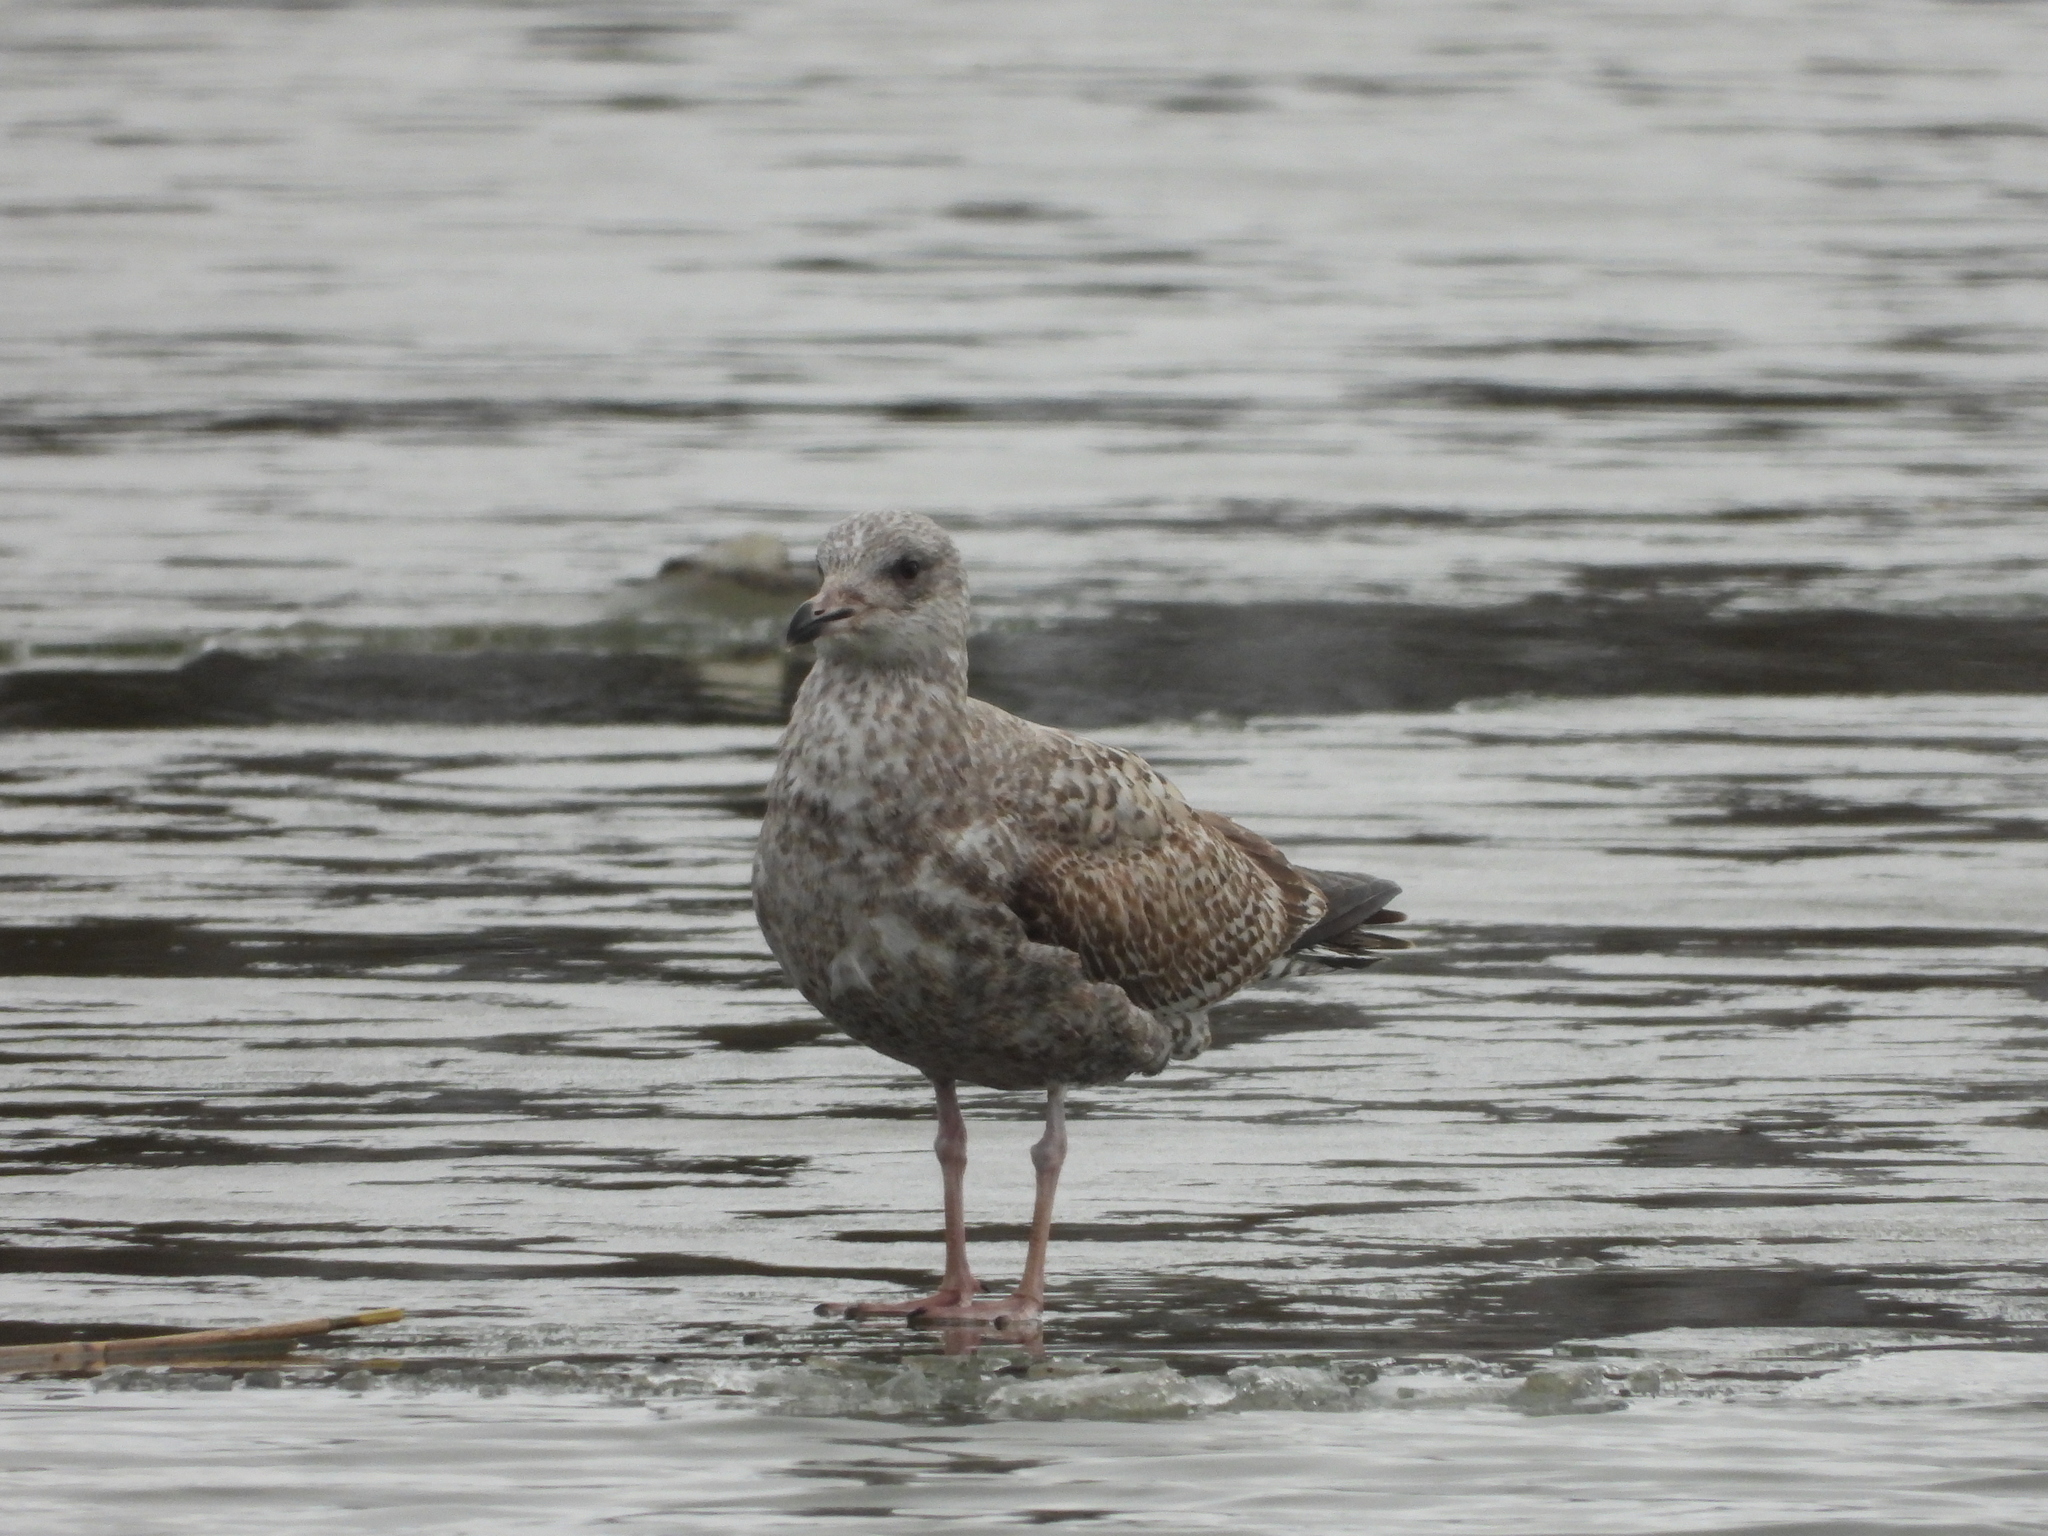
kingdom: Animalia
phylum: Chordata
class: Aves
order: Charadriiformes
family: Laridae
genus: Larus
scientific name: Larus argentatus
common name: Herring gull
